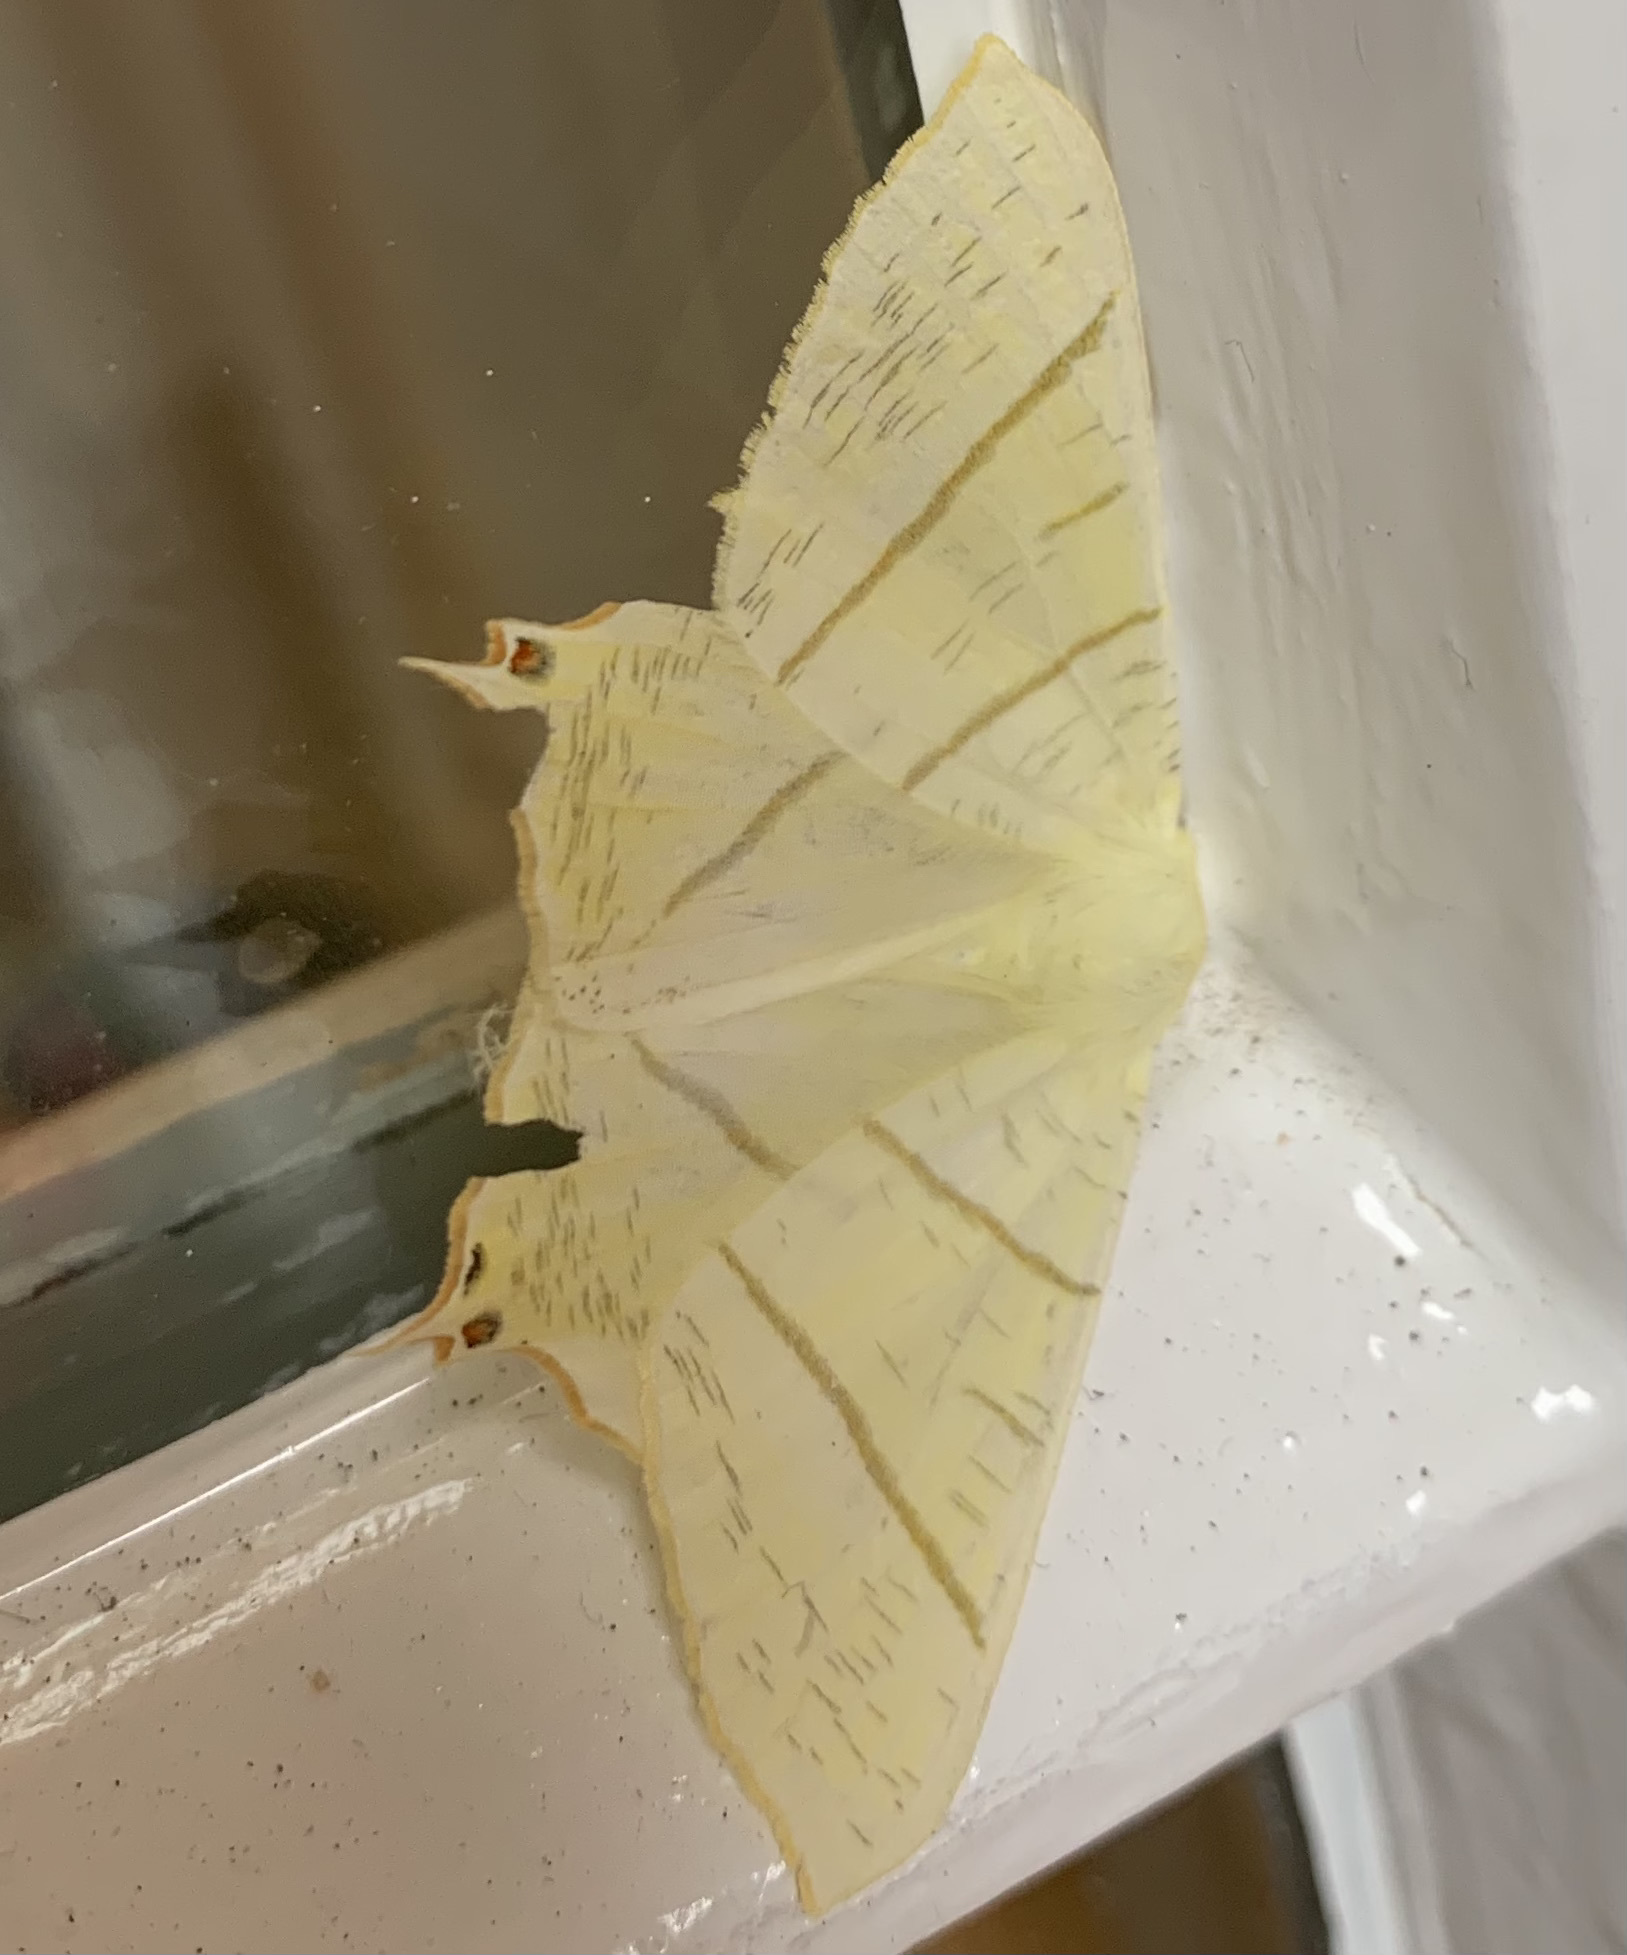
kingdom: Animalia
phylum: Arthropoda
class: Insecta
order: Lepidoptera
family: Geometridae
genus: Ourapteryx
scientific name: Ourapteryx sambucaria
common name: Swallow-tailed moth
